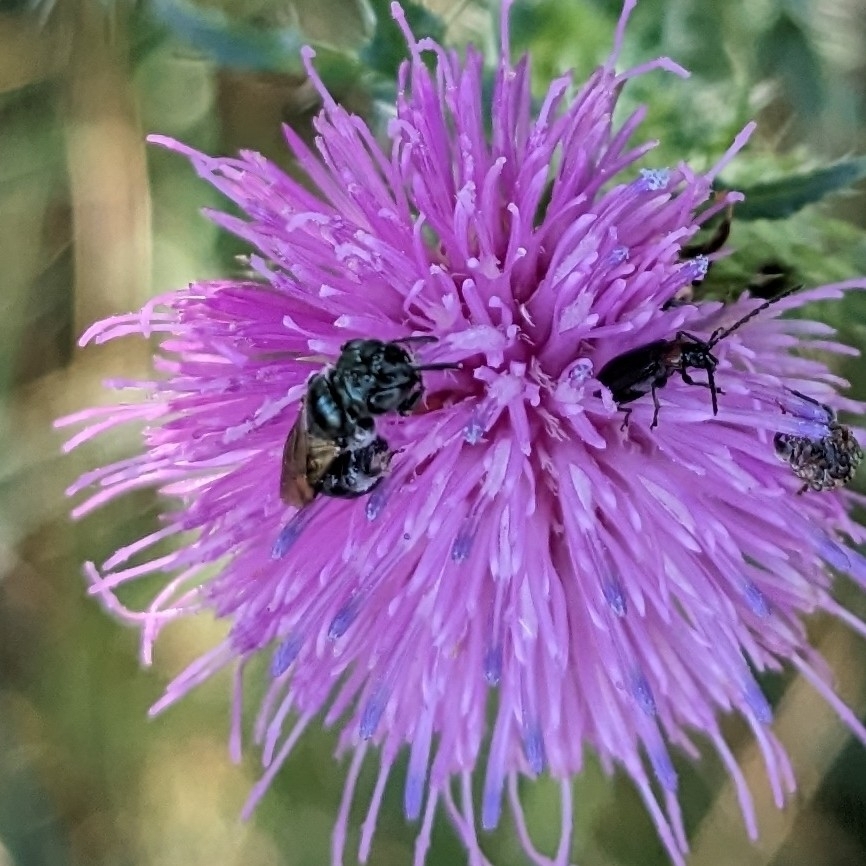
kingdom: Animalia
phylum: Arthropoda
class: Insecta
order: Hymenoptera
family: Apidae
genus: Ceratina
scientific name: Ceratina calcarata
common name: Spurred carpenter bee
